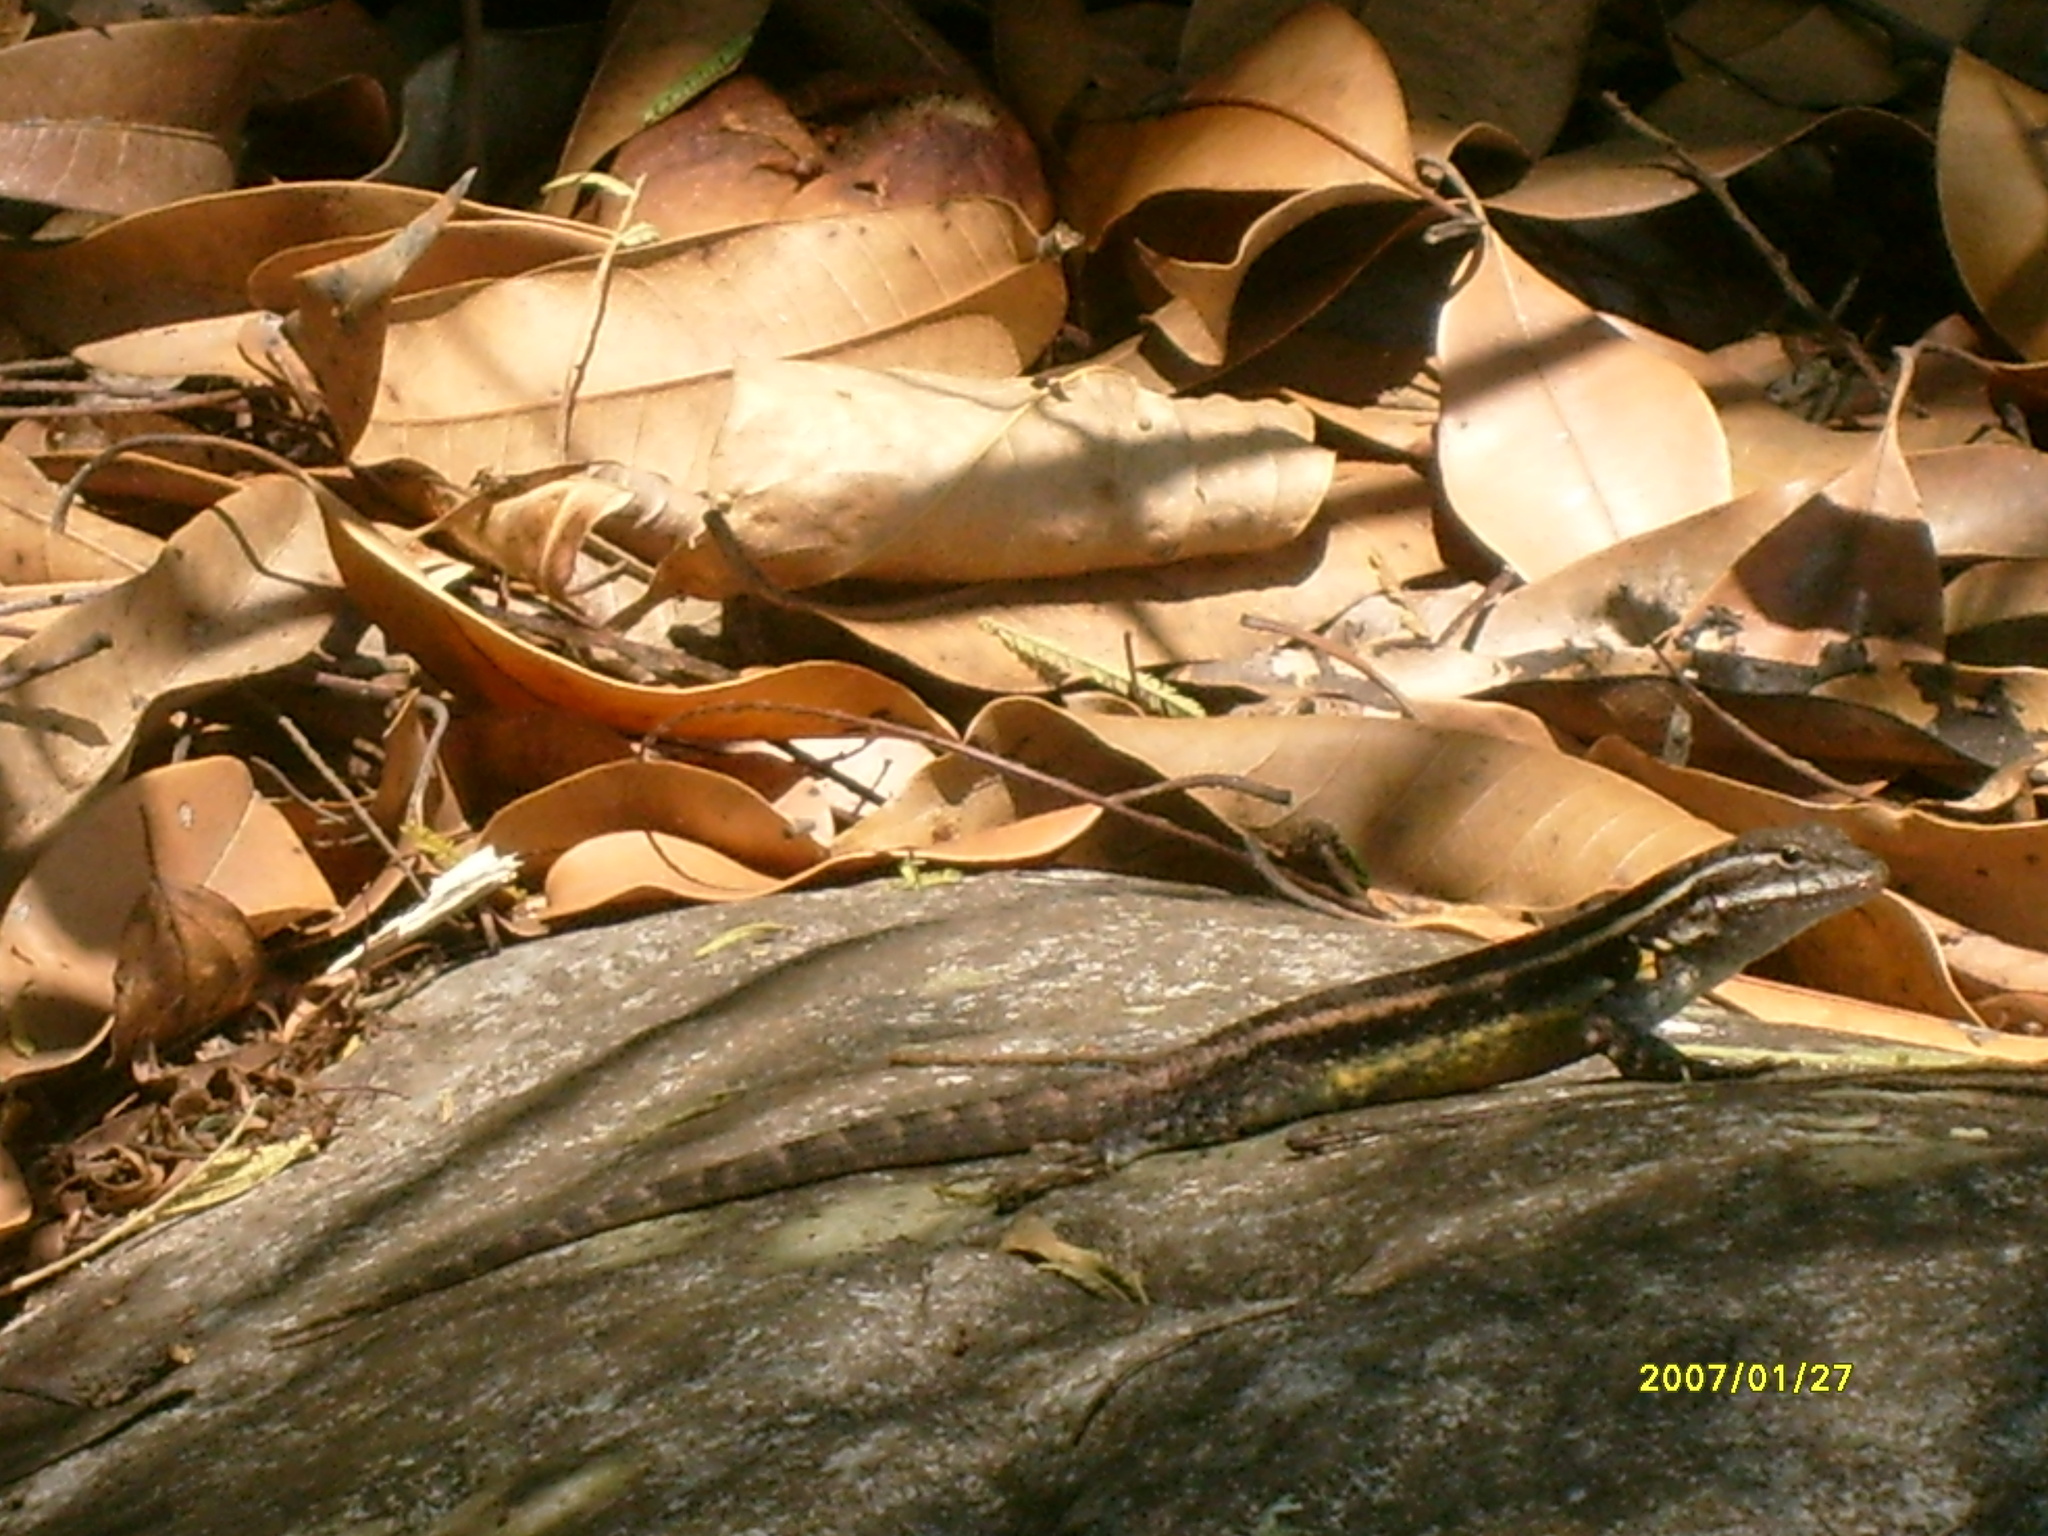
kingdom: Animalia
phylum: Chordata
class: Squamata
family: Phrynosomatidae
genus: Sceloporus
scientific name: Sceloporus variabilis
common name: Rosebelly lizard
